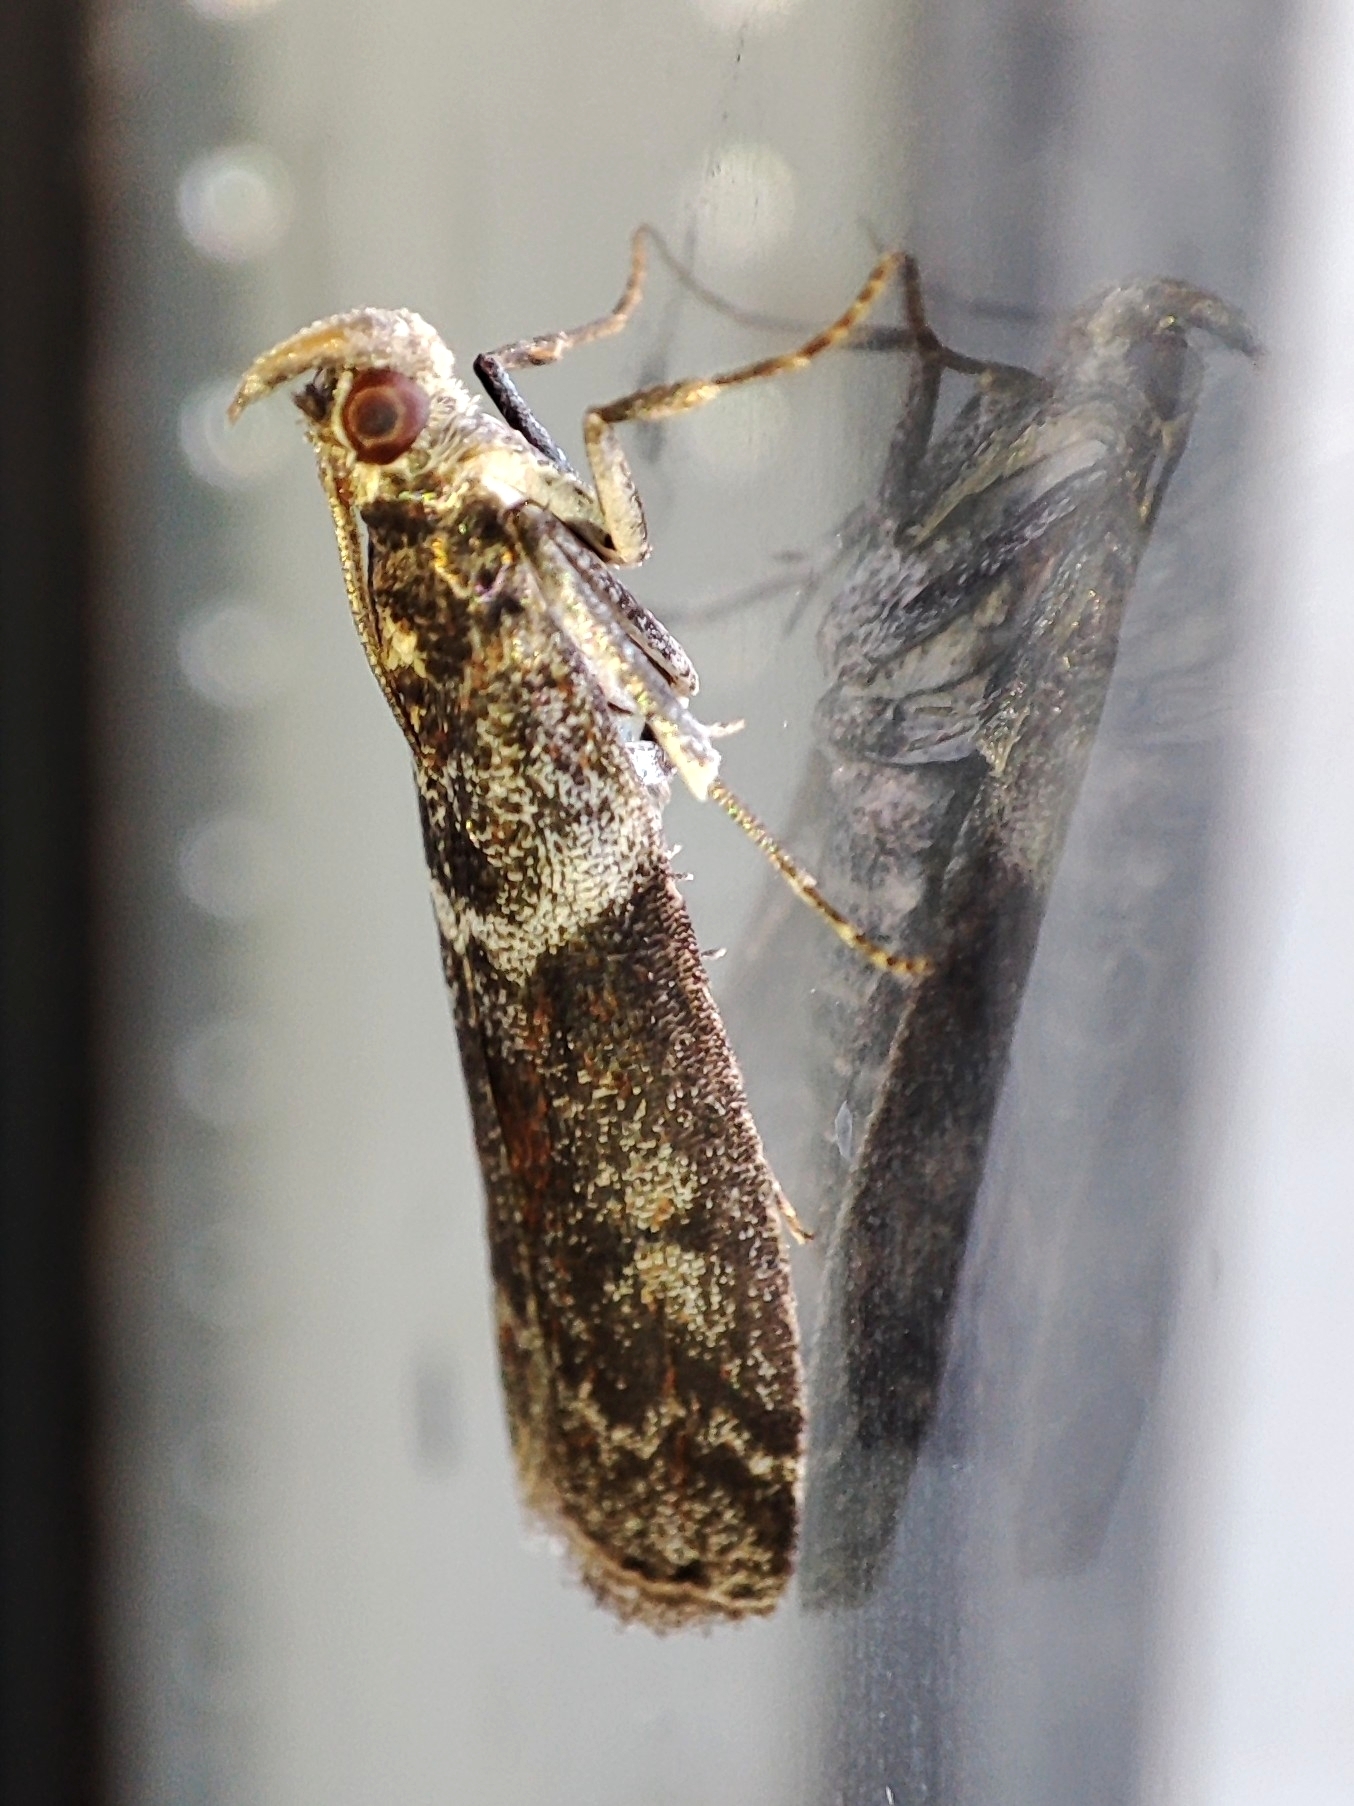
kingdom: Animalia
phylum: Arthropoda
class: Insecta
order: Lepidoptera
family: Pyralidae
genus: Oncocera
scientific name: Oncocera Laodamia faecella
